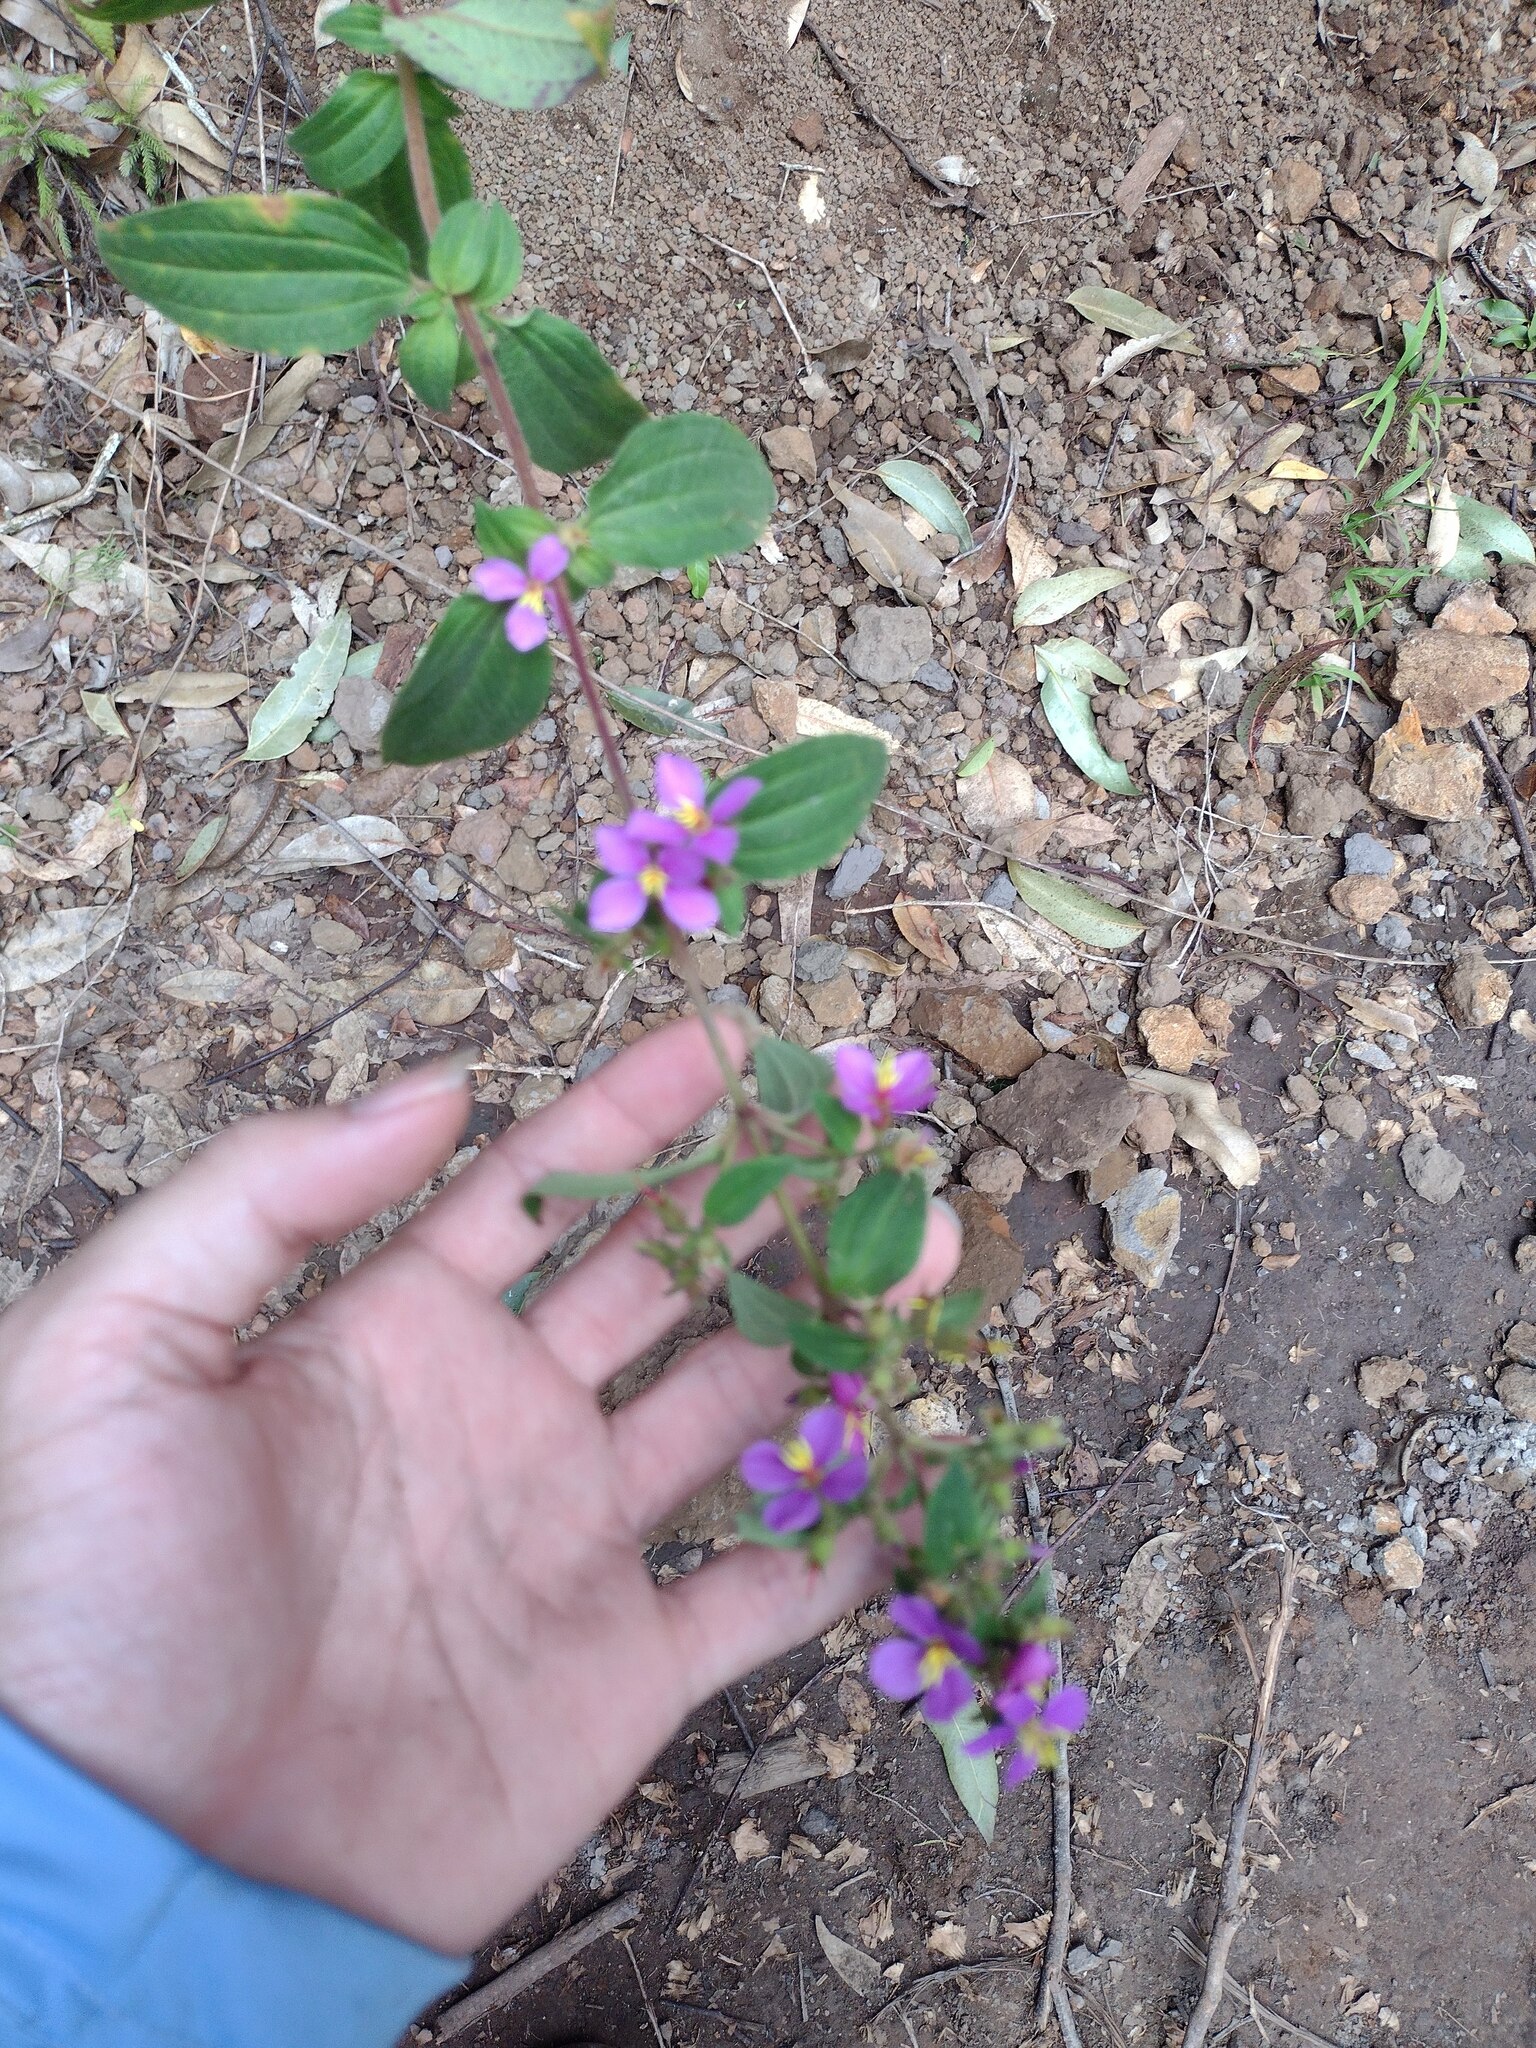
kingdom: Plantae
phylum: Tracheophyta
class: Magnoliopsida
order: Myrtales
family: Melastomataceae
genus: Chaetogastra
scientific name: Chaetogastra herbacea
